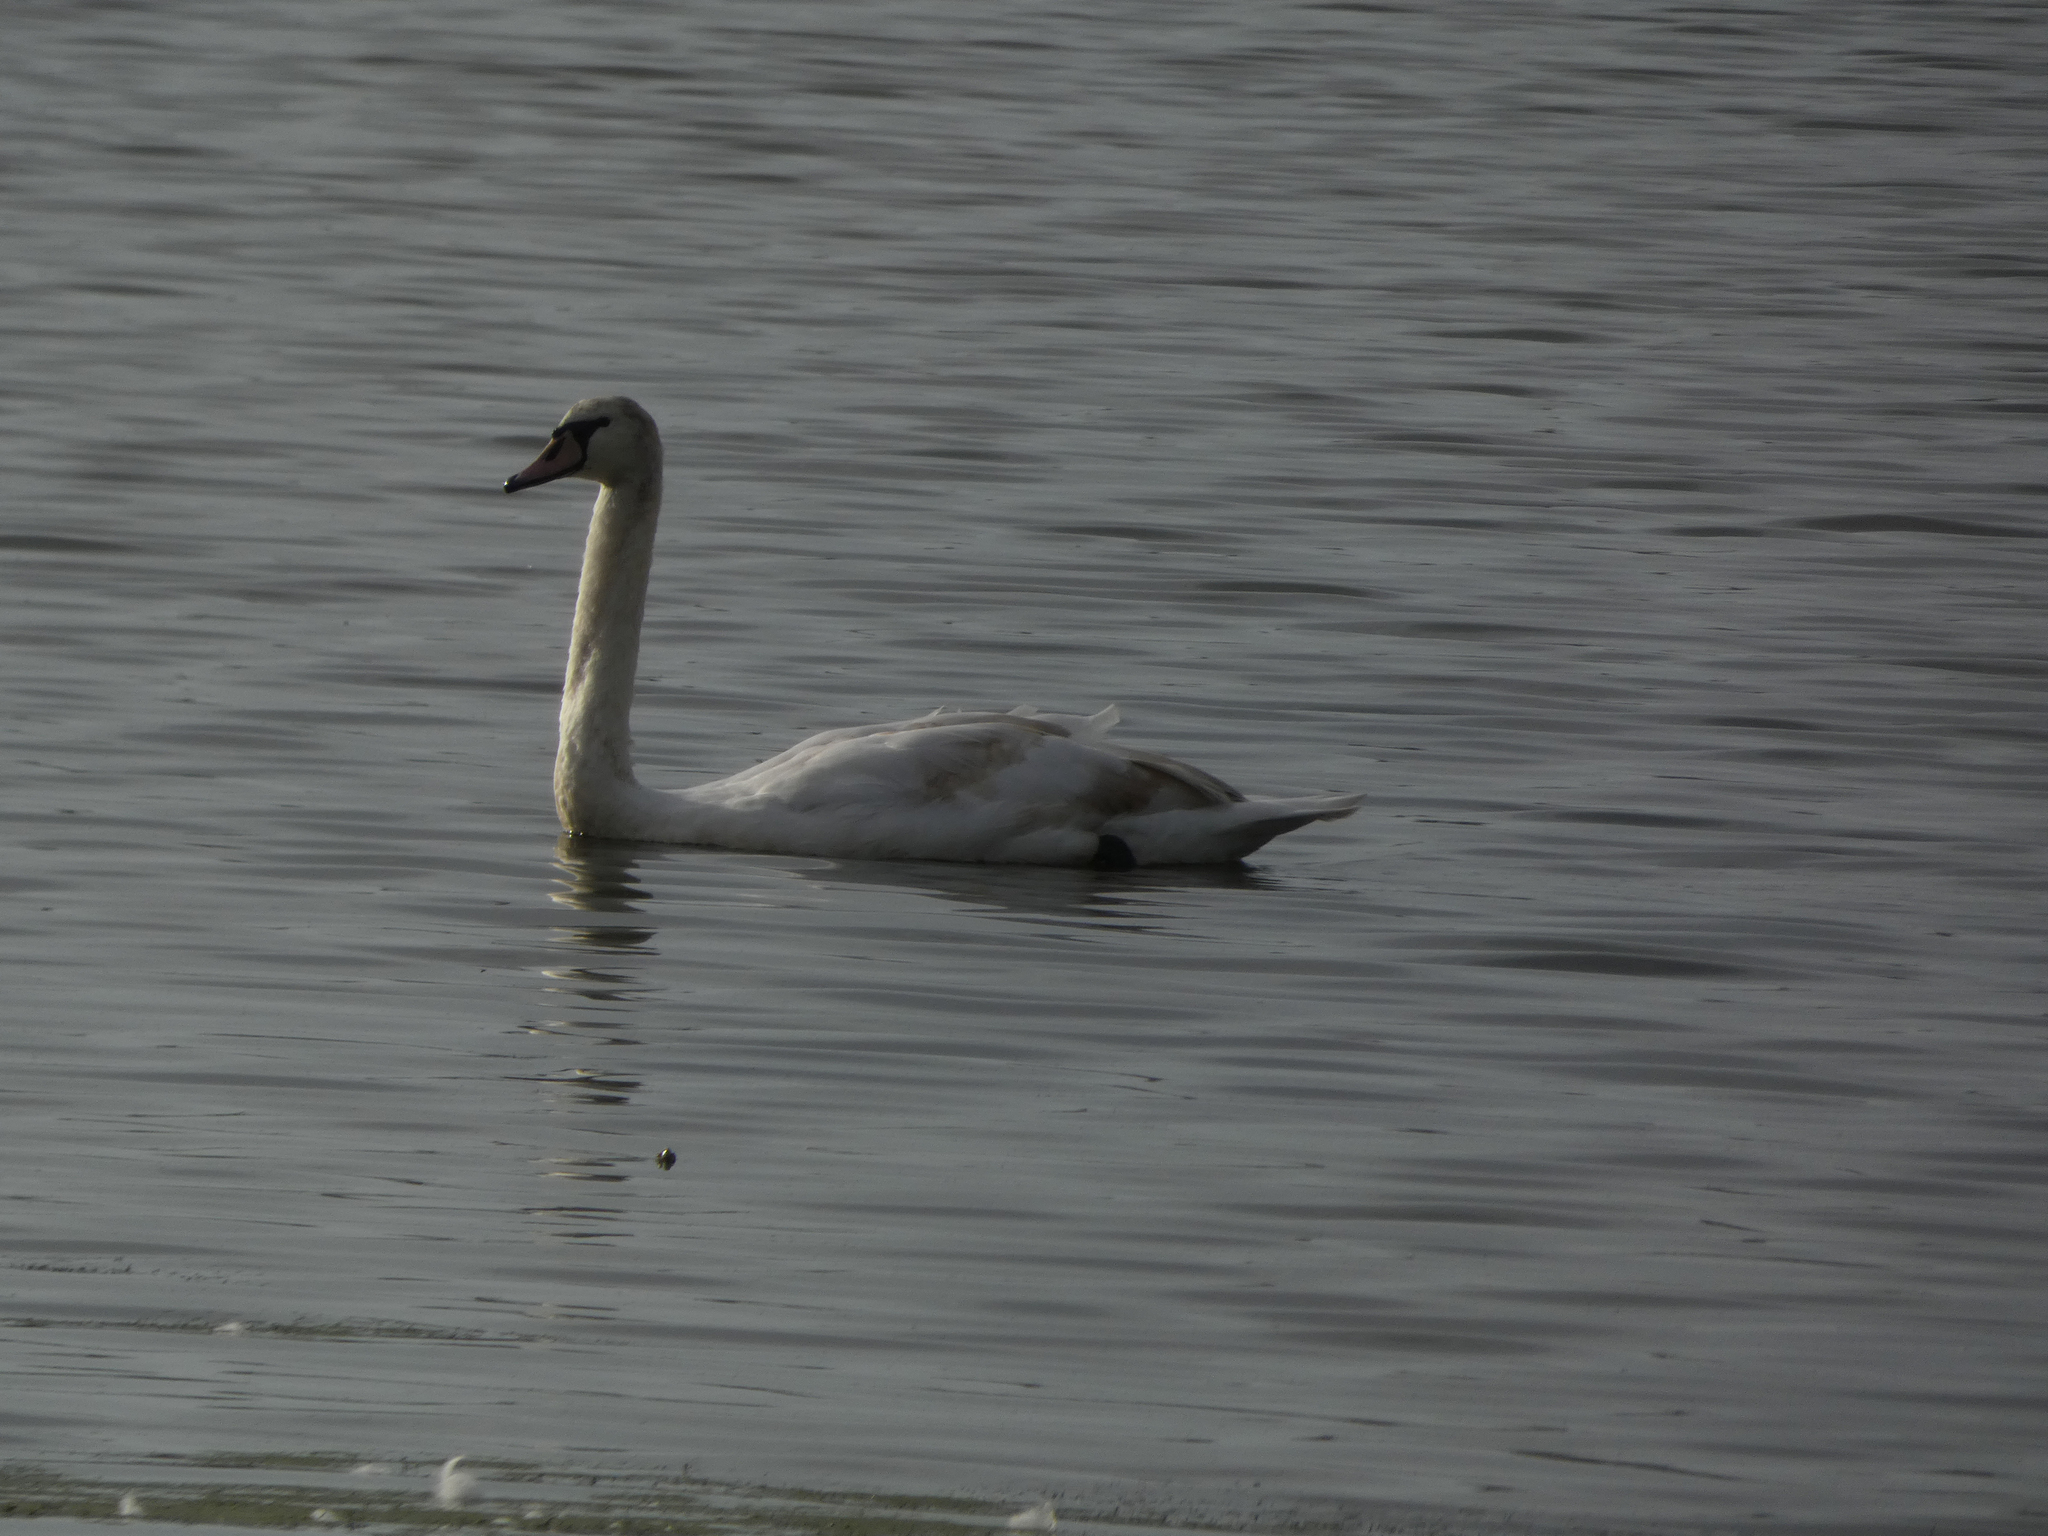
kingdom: Animalia
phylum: Chordata
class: Aves
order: Anseriformes
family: Anatidae
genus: Cygnus
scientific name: Cygnus olor
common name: Mute swan
